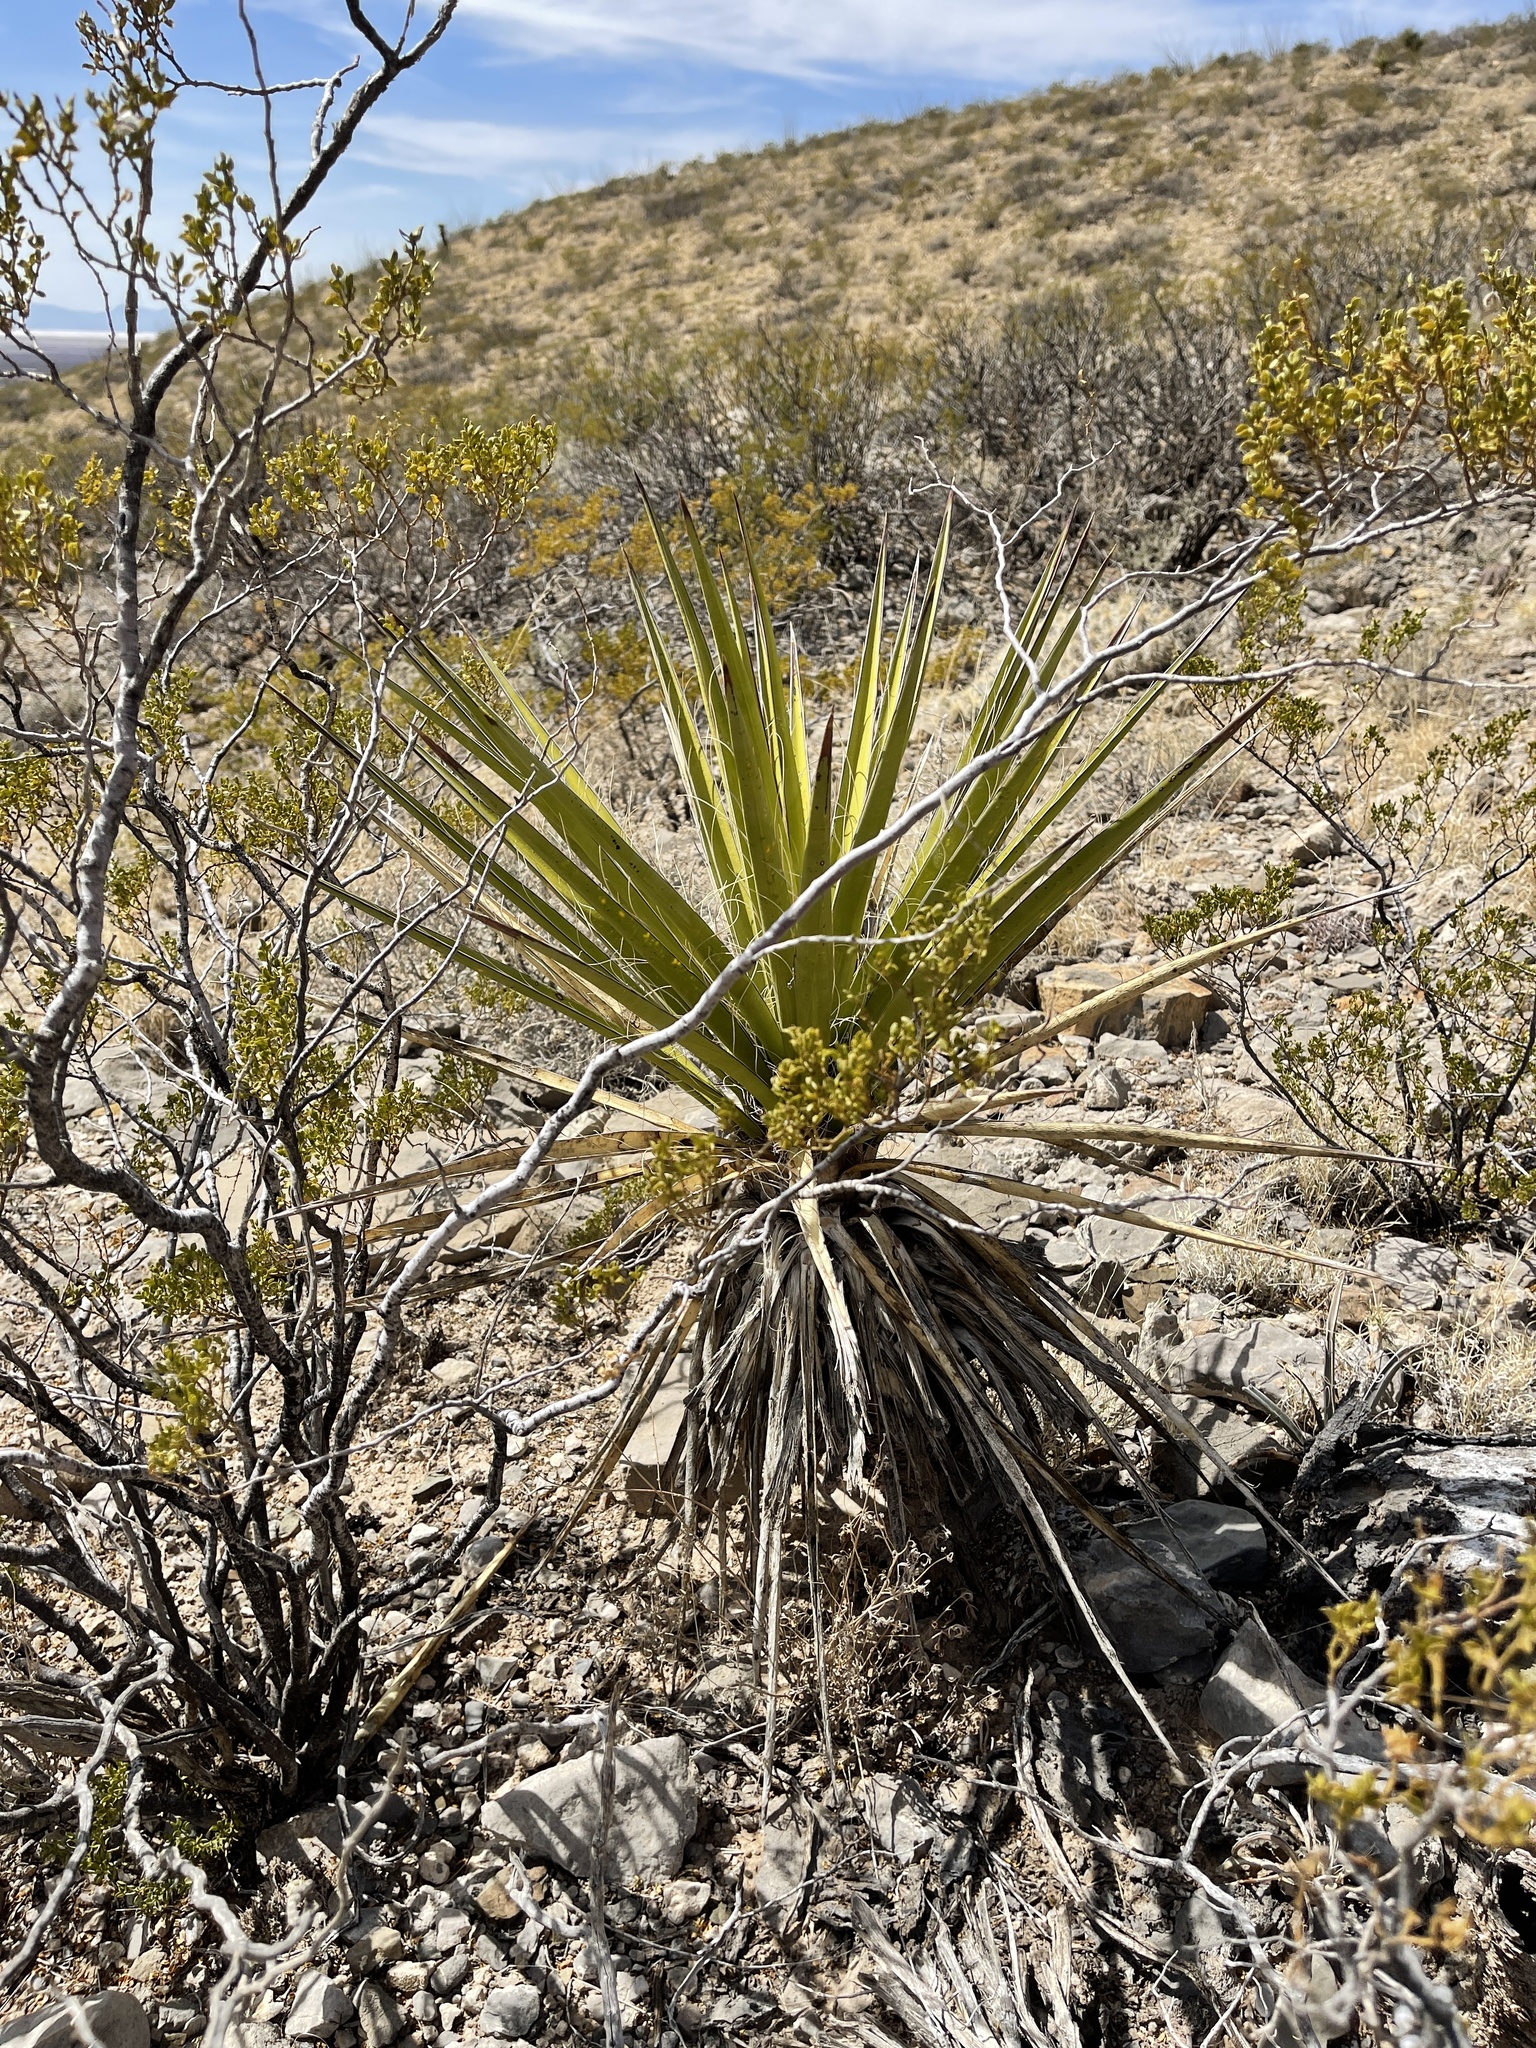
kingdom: Plantae
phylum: Tracheophyta
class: Liliopsida
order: Asparagales
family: Asparagaceae
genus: Yucca
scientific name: Yucca treculiana
